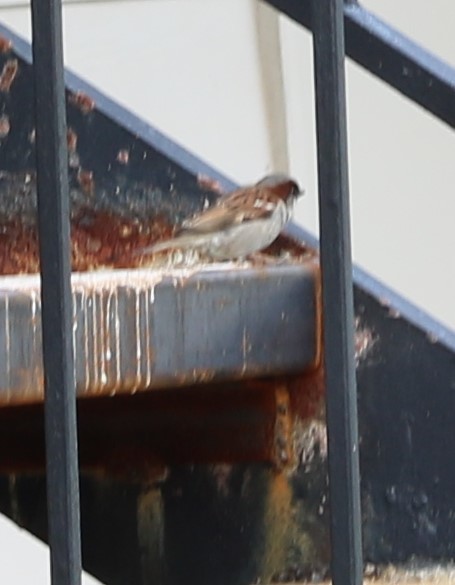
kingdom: Animalia
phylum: Chordata
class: Aves
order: Passeriformes
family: Passeridae
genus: Passer
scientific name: Passer domesticus
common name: House sparrow
